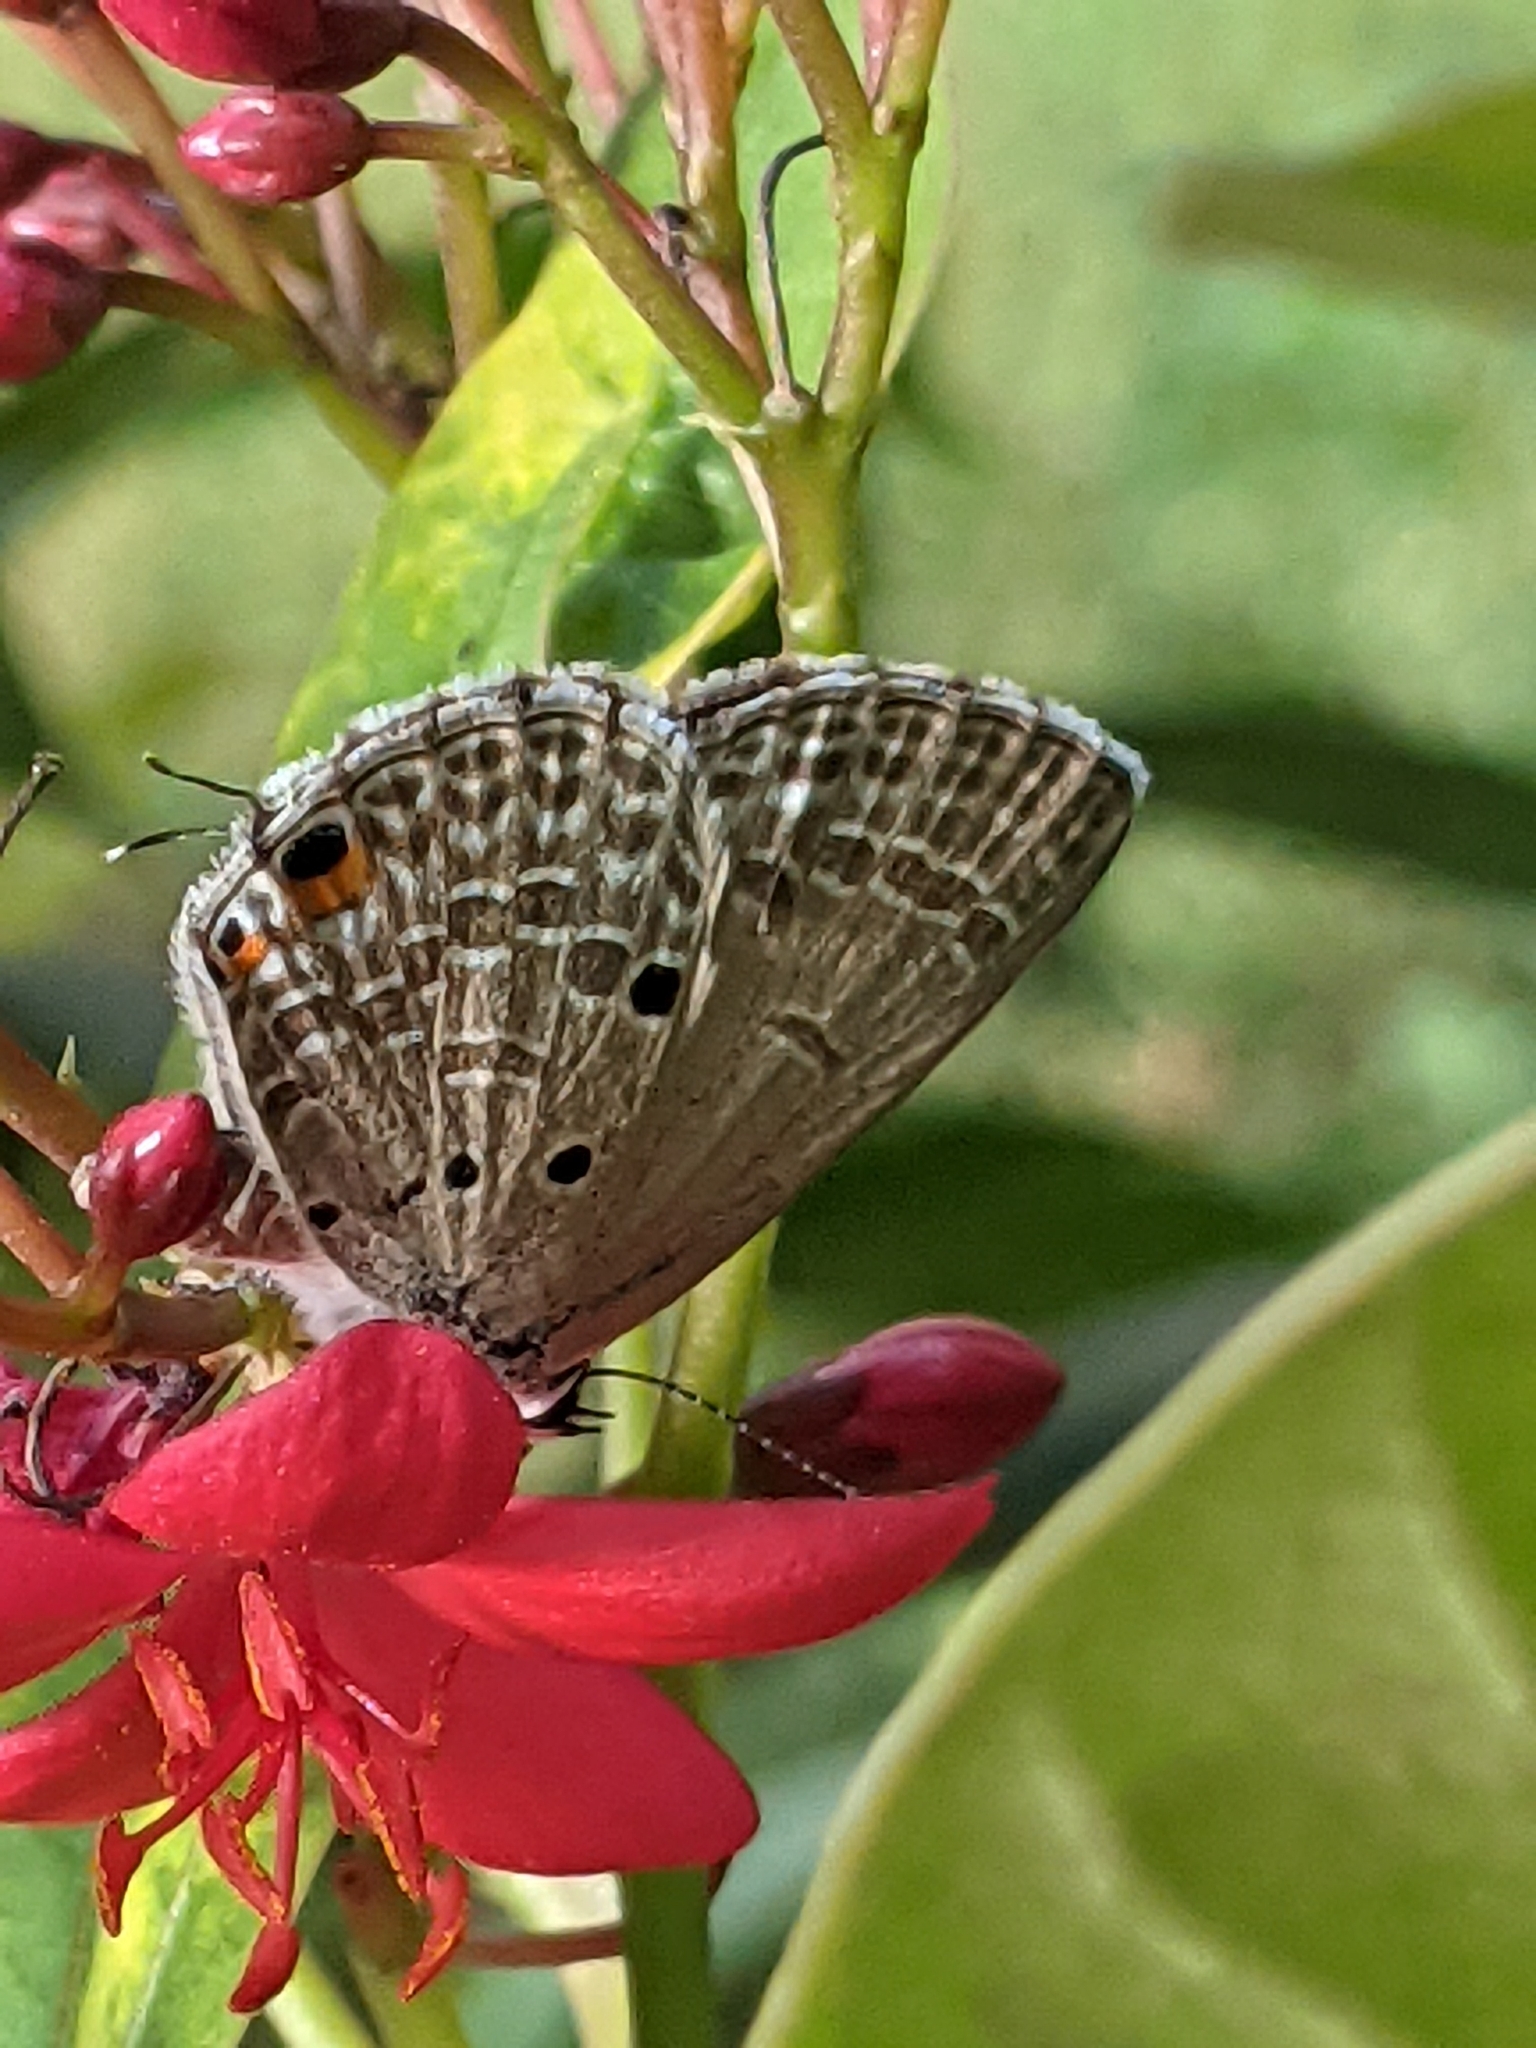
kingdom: Animalia
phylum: Arthropoda
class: Insecta
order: Lepidoptera
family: Lycaenidae
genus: Luthrodes
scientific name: Luthrodes pandava
